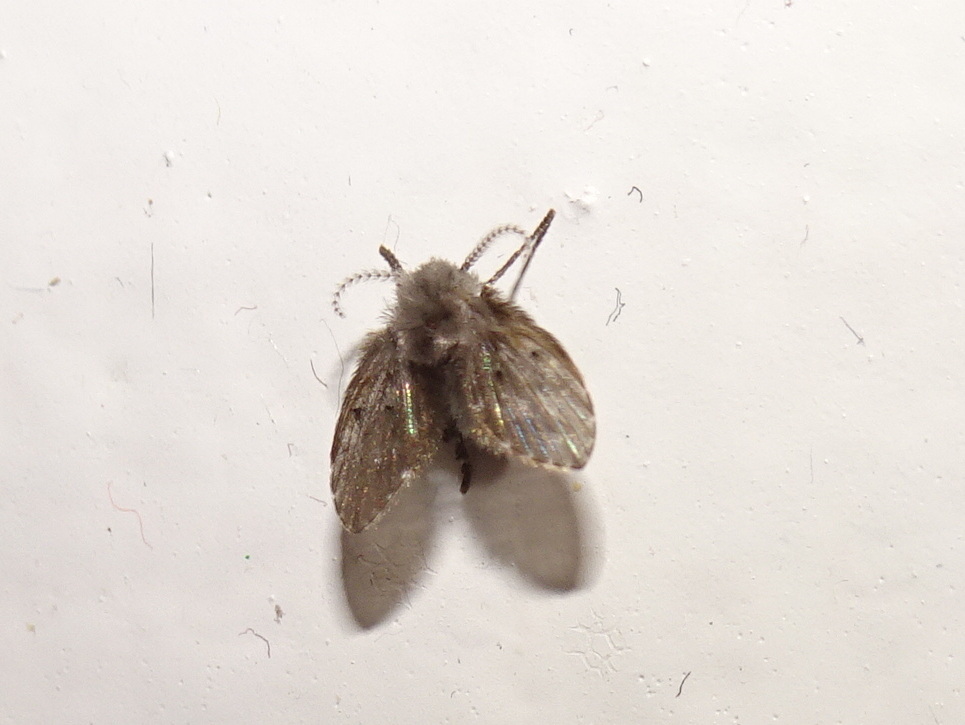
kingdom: Animalia
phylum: Arthropoda
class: Insecta
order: Diptera
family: Psychodidae
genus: Clogmia
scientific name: Clogmia albipunctatus
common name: White-spotted moth fly
